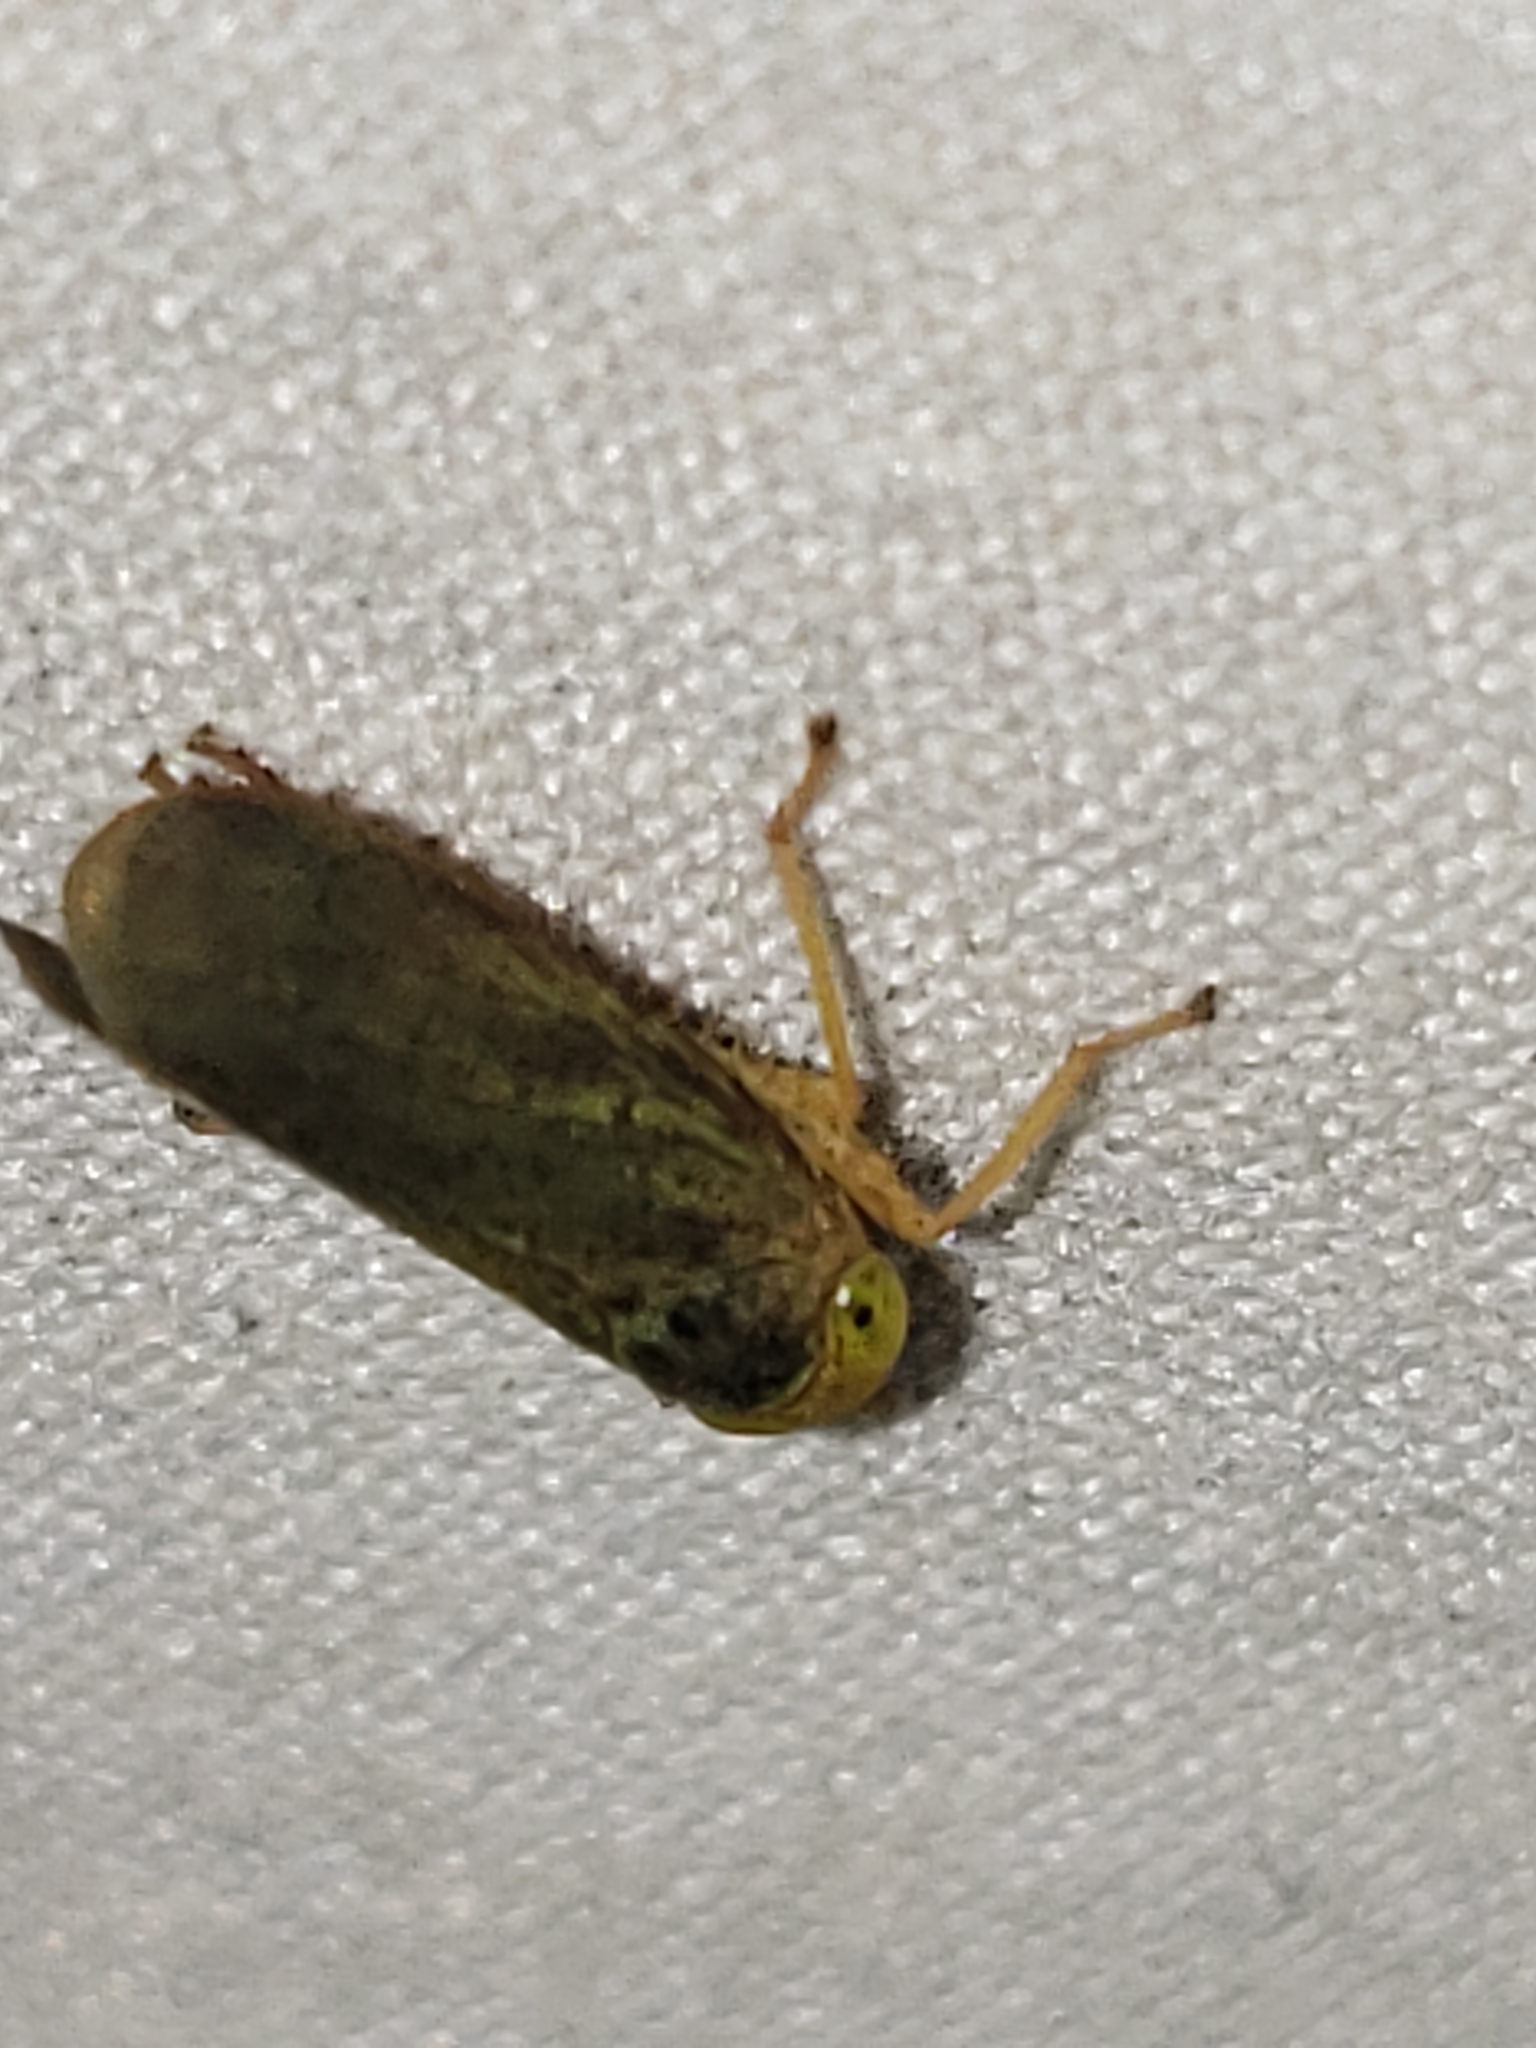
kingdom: Animalia
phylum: Arthropoda
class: Insecta
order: Hemiptera
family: Cicadellidae
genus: Jikradia
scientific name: Jikradia olitoria
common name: Coppery leafhopper
